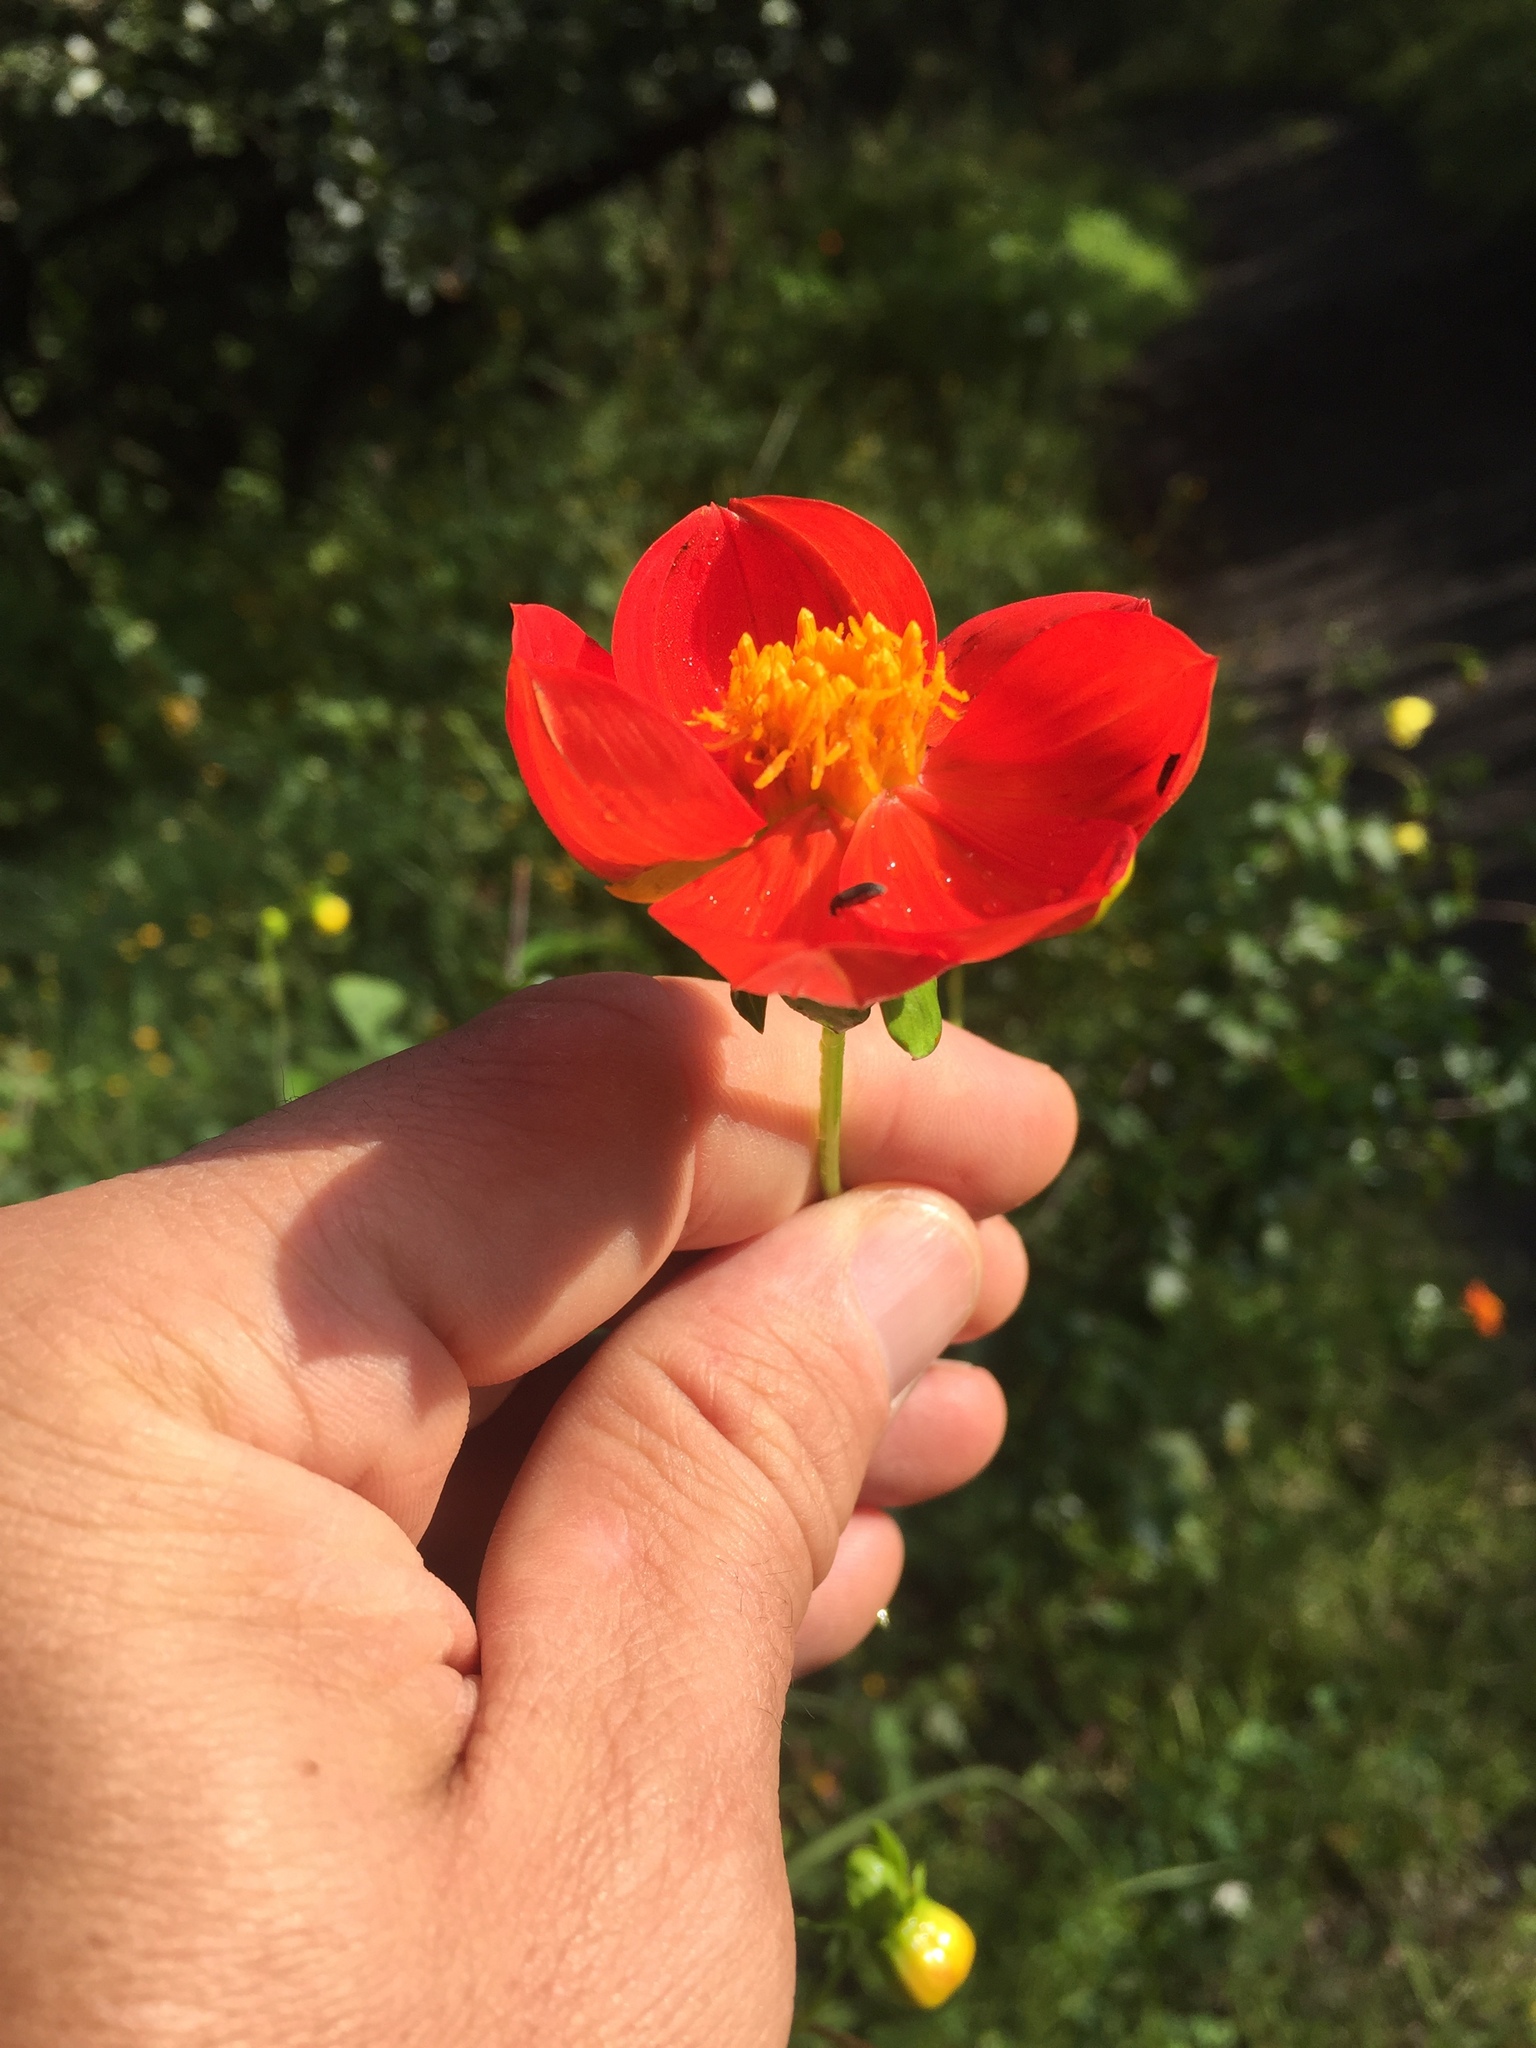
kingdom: Plantae
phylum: Tracheophyta
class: Magnoliopsida
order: Asterales
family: Asteraceae
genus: Dahlia
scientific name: Dahlia coccinea
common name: Red dahlia
